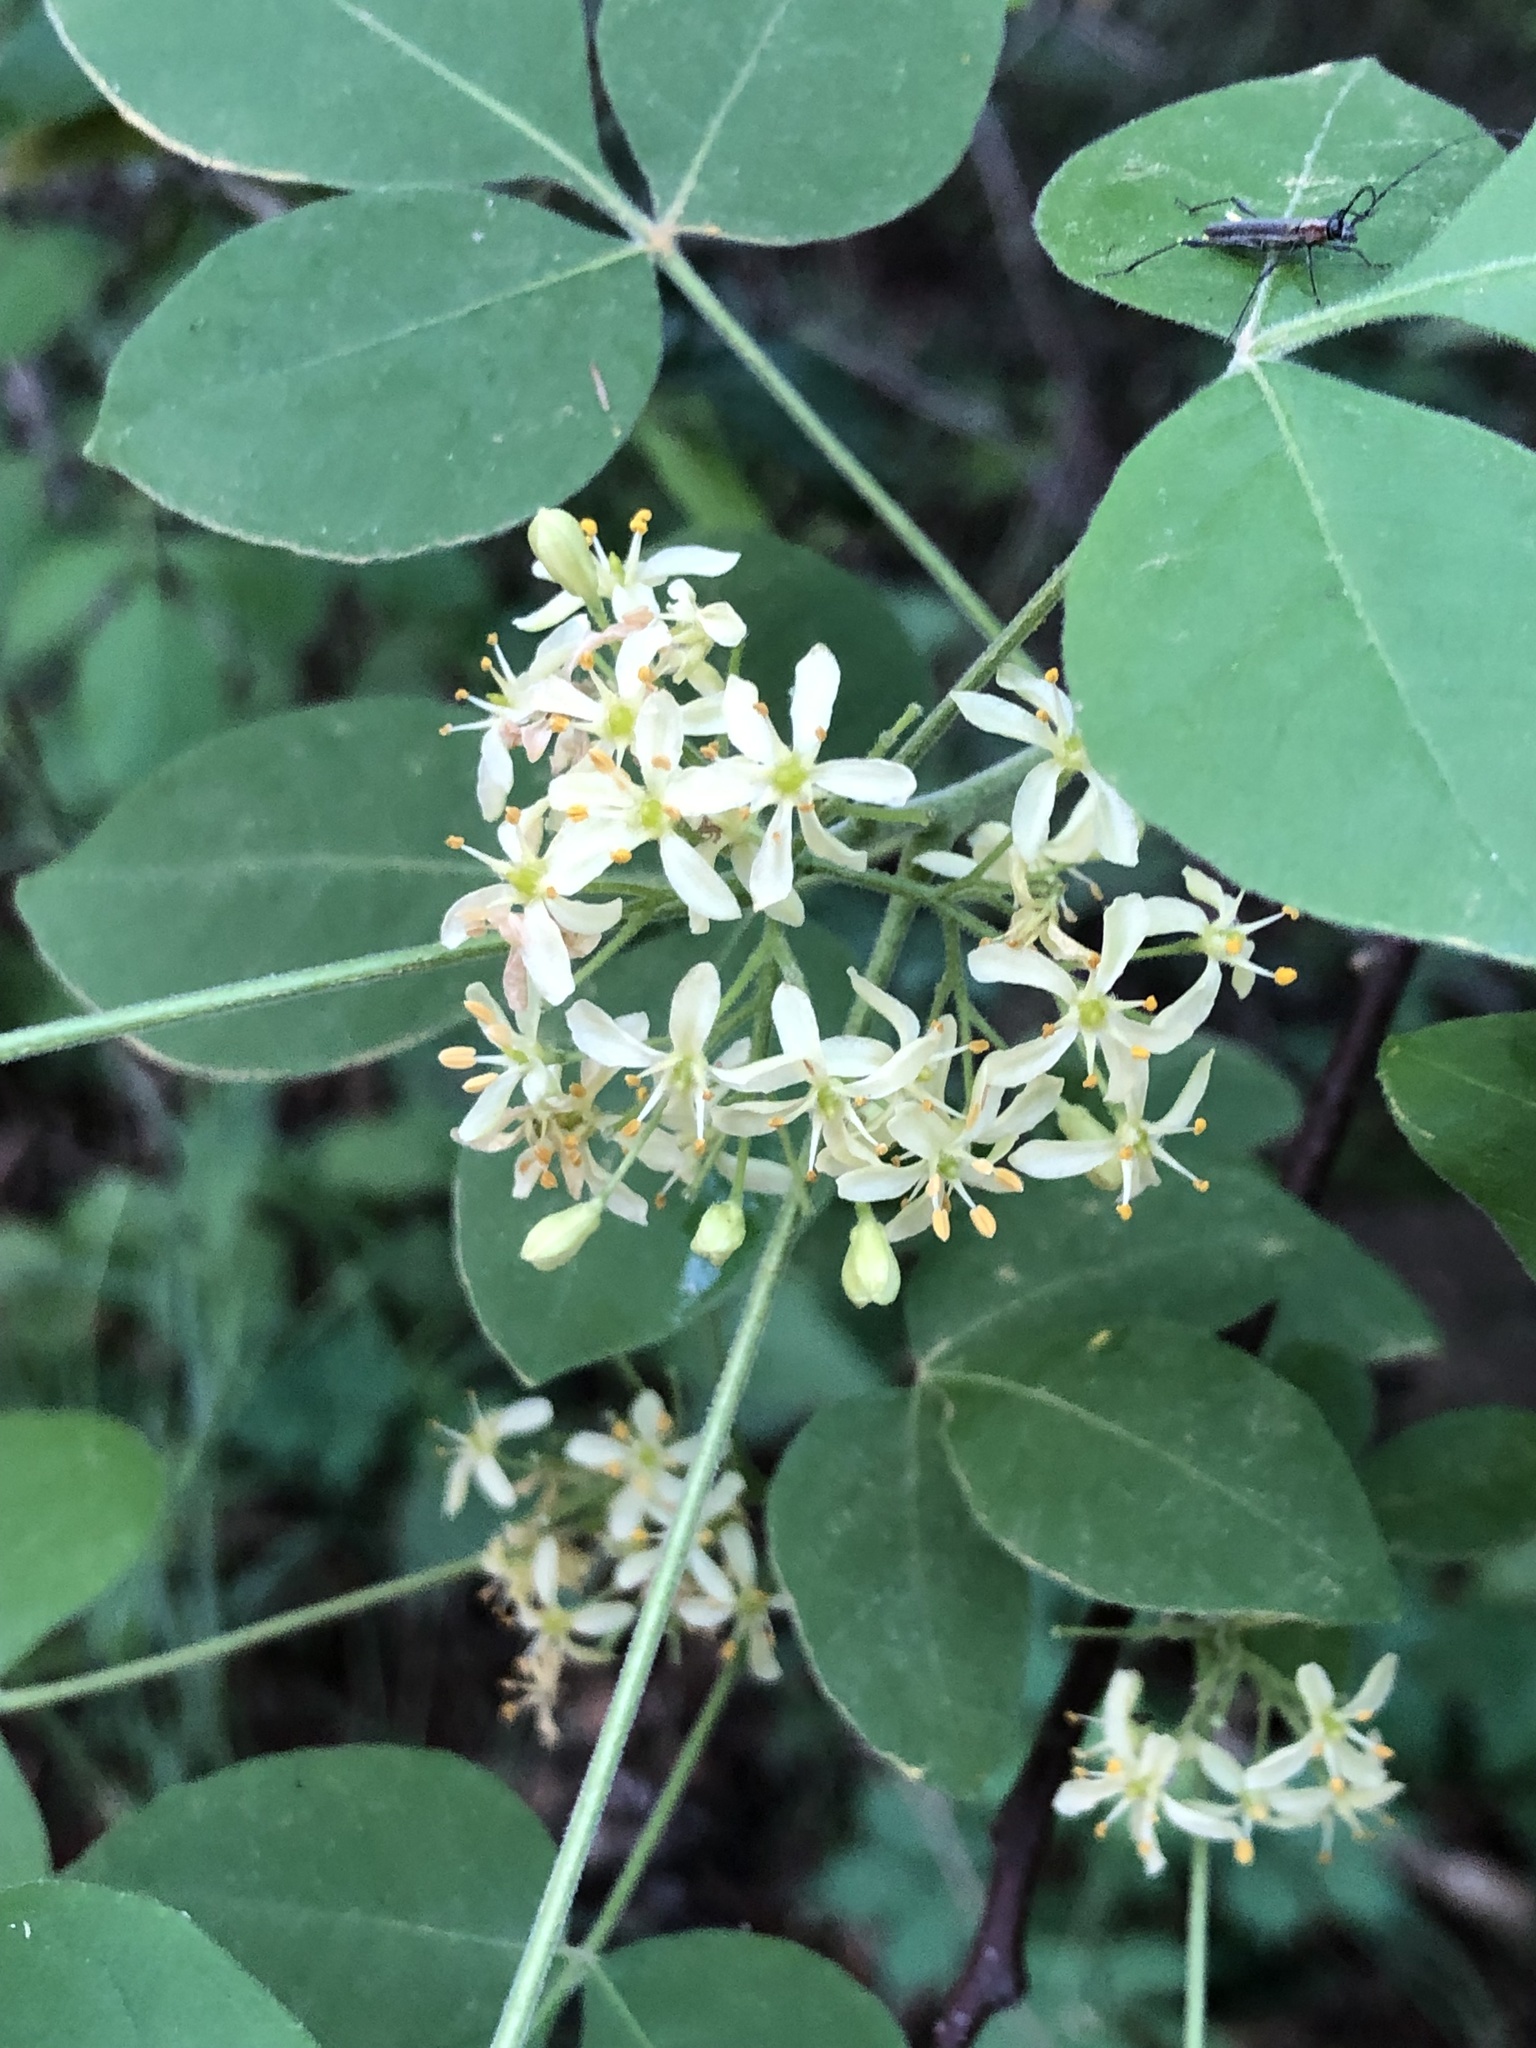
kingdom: Plantae
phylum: Tracheophyta
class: Magnoliopsida
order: Sapindales
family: Rutaceae
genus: Ptelea
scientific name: Ptelea trifoliata
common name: Common hop-tree
